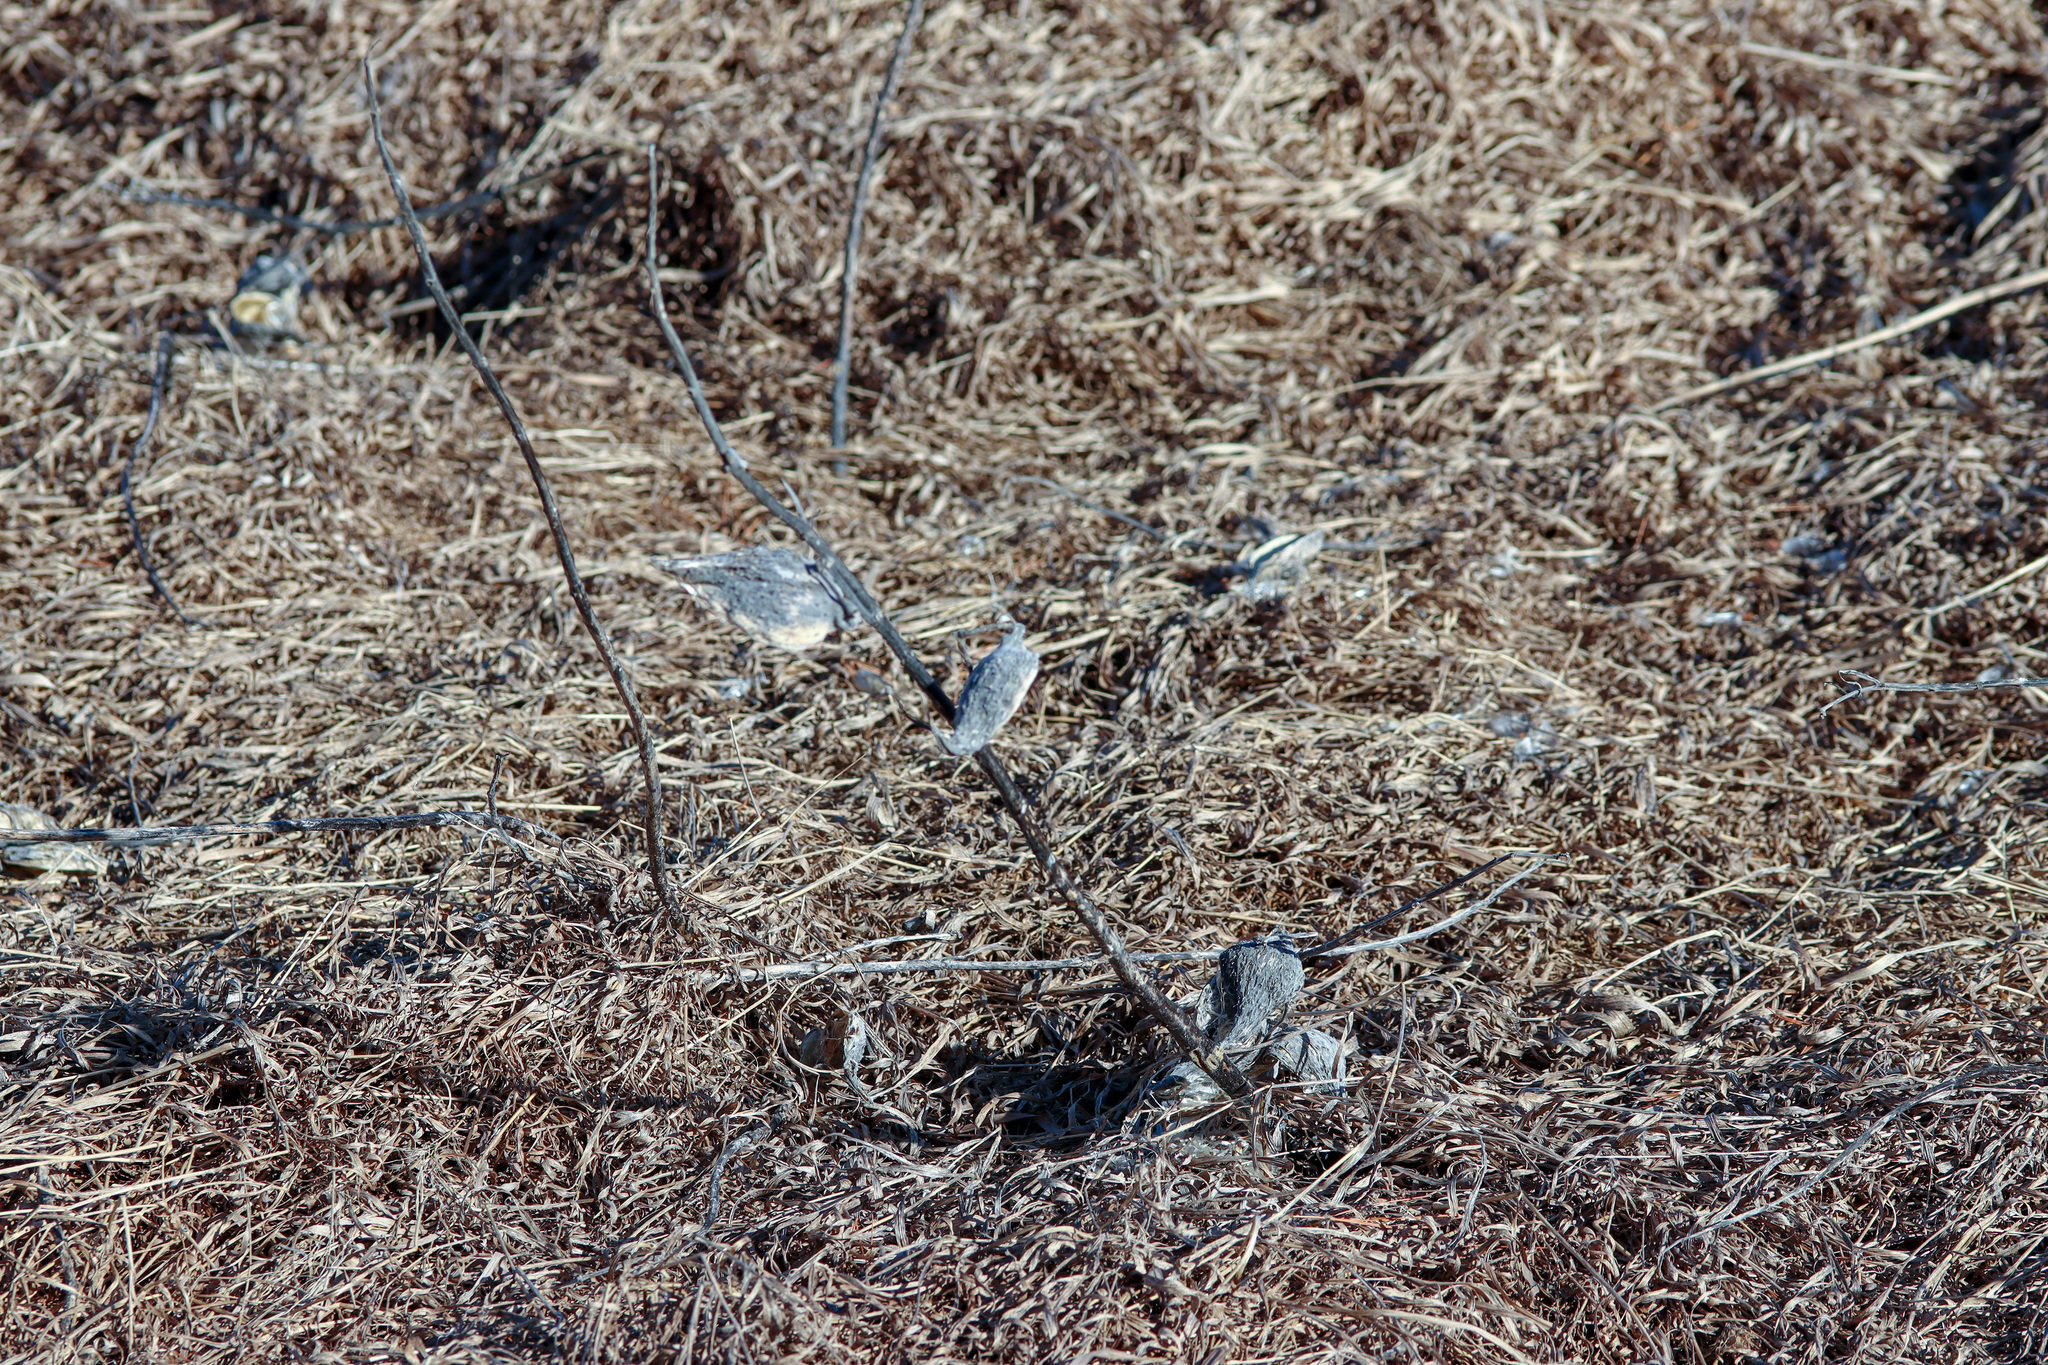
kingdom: Plantae
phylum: Tracheophyta
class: Magnoliopsida
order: Gentianales
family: Apocynaceae
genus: Asclepias
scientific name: Asclepias syriaca
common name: Common milkweed
